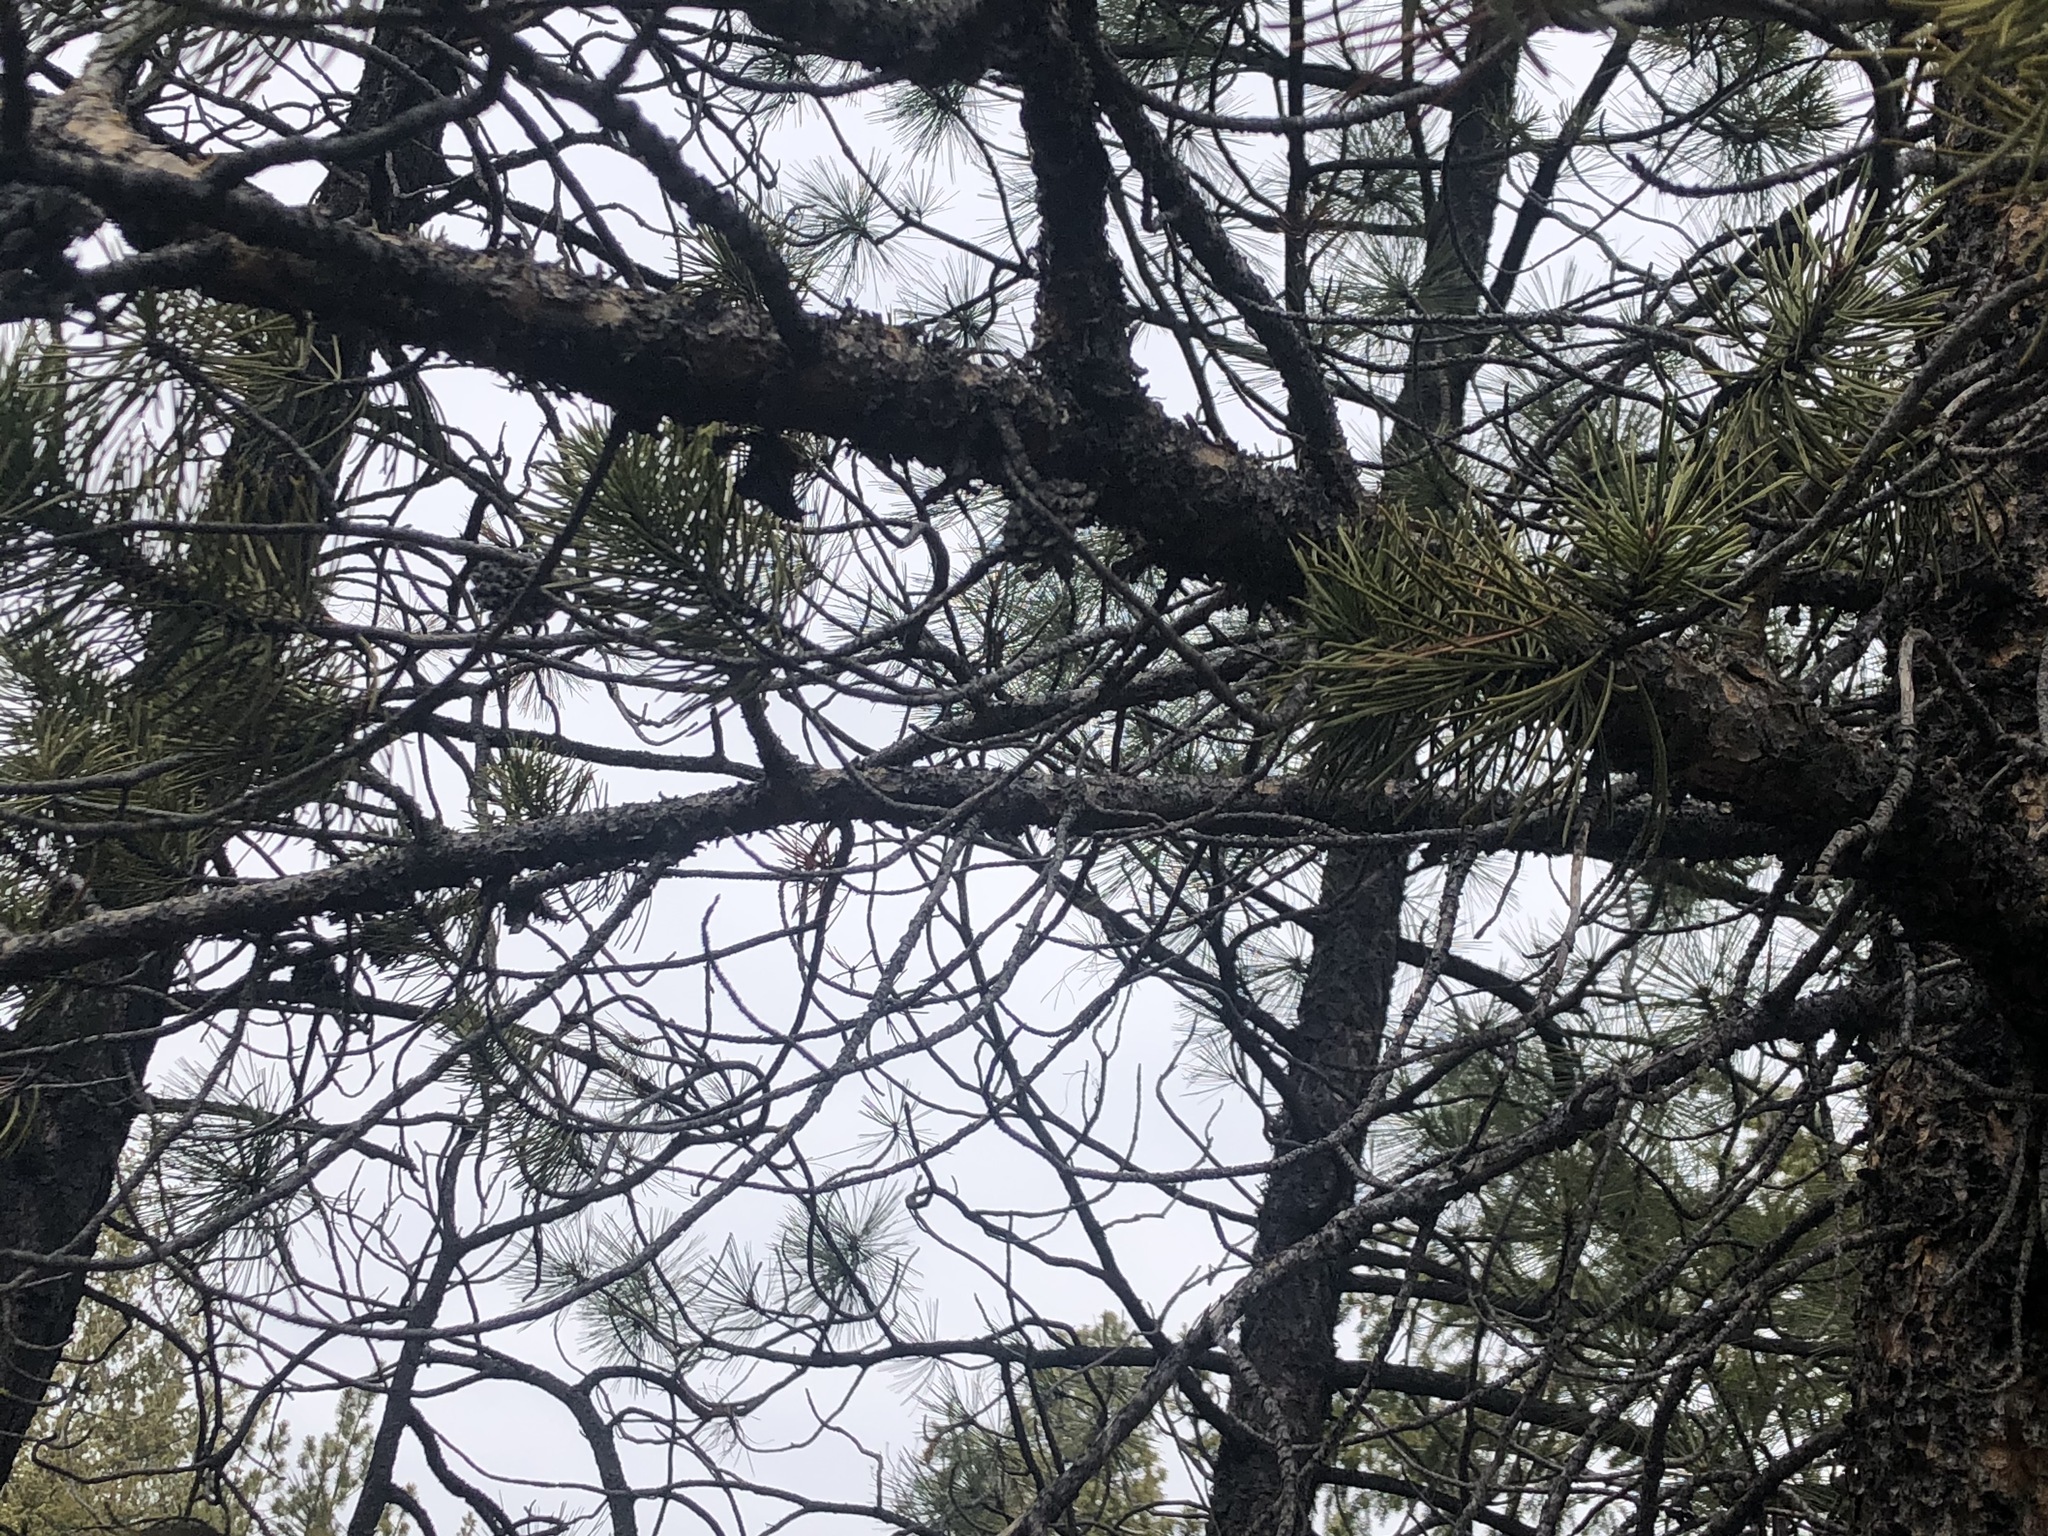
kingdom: Plantae
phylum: Tracheophyta
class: Pinopsida
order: Pinales
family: Pinaceae
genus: Pinus
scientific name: Pinus contorta
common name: Lodgepole pine
